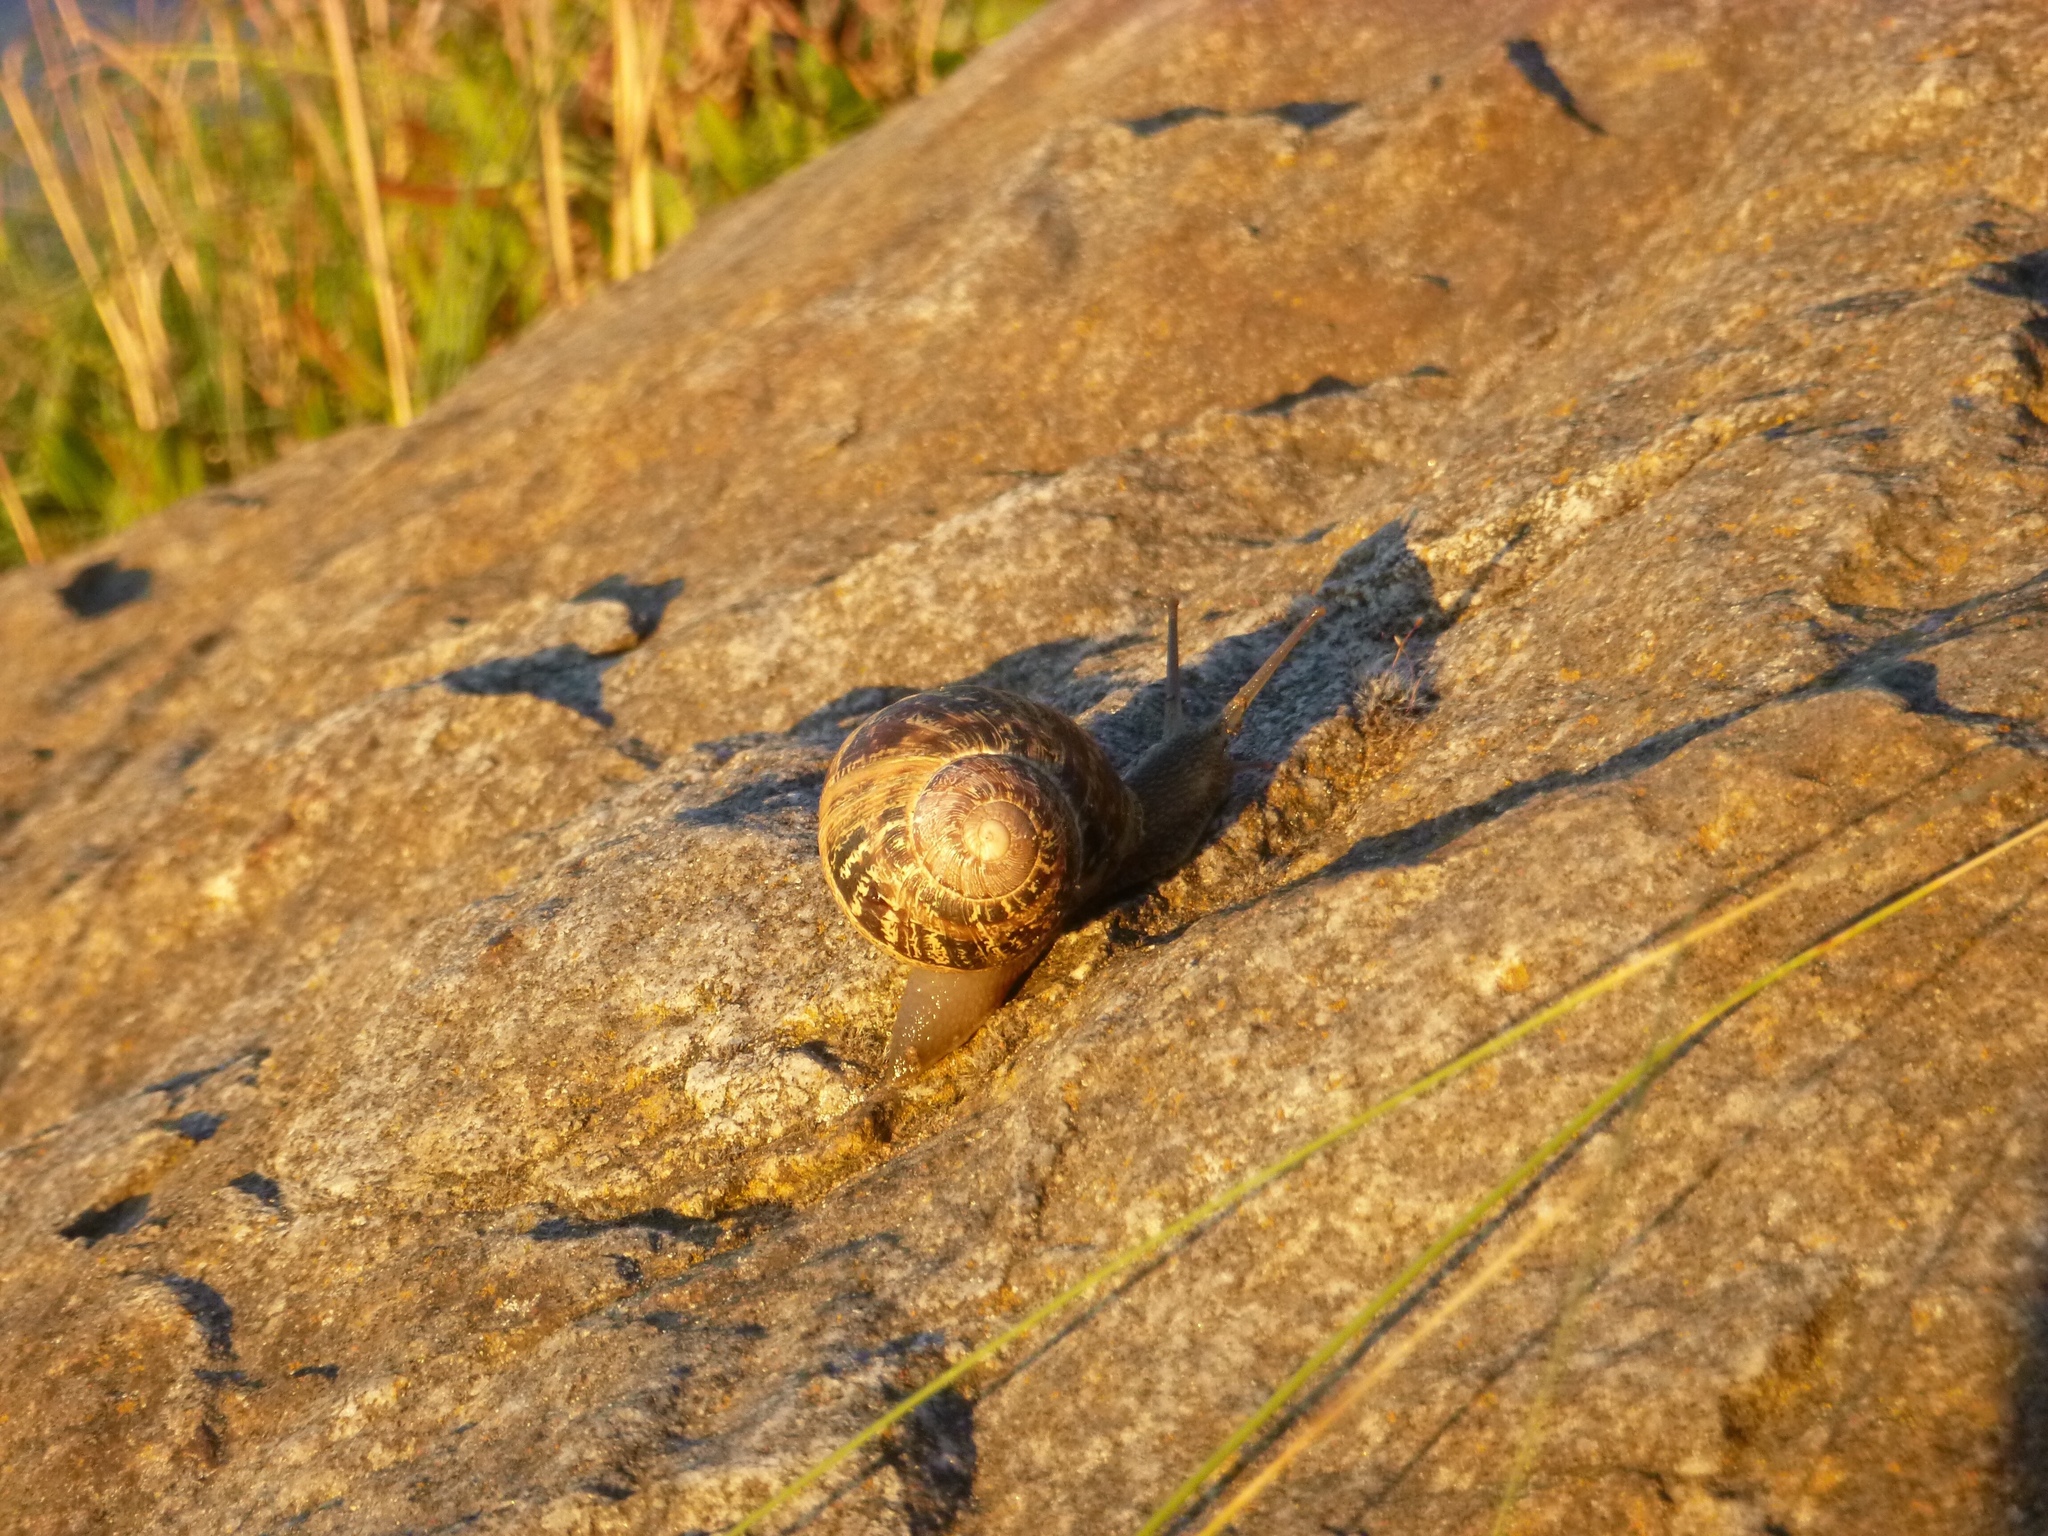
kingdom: Animalia
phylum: Mollusca
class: Gastropoda
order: Stylommatophora
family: Helicidae
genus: Cornu
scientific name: Cornu aspersum
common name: Brown garden snail
